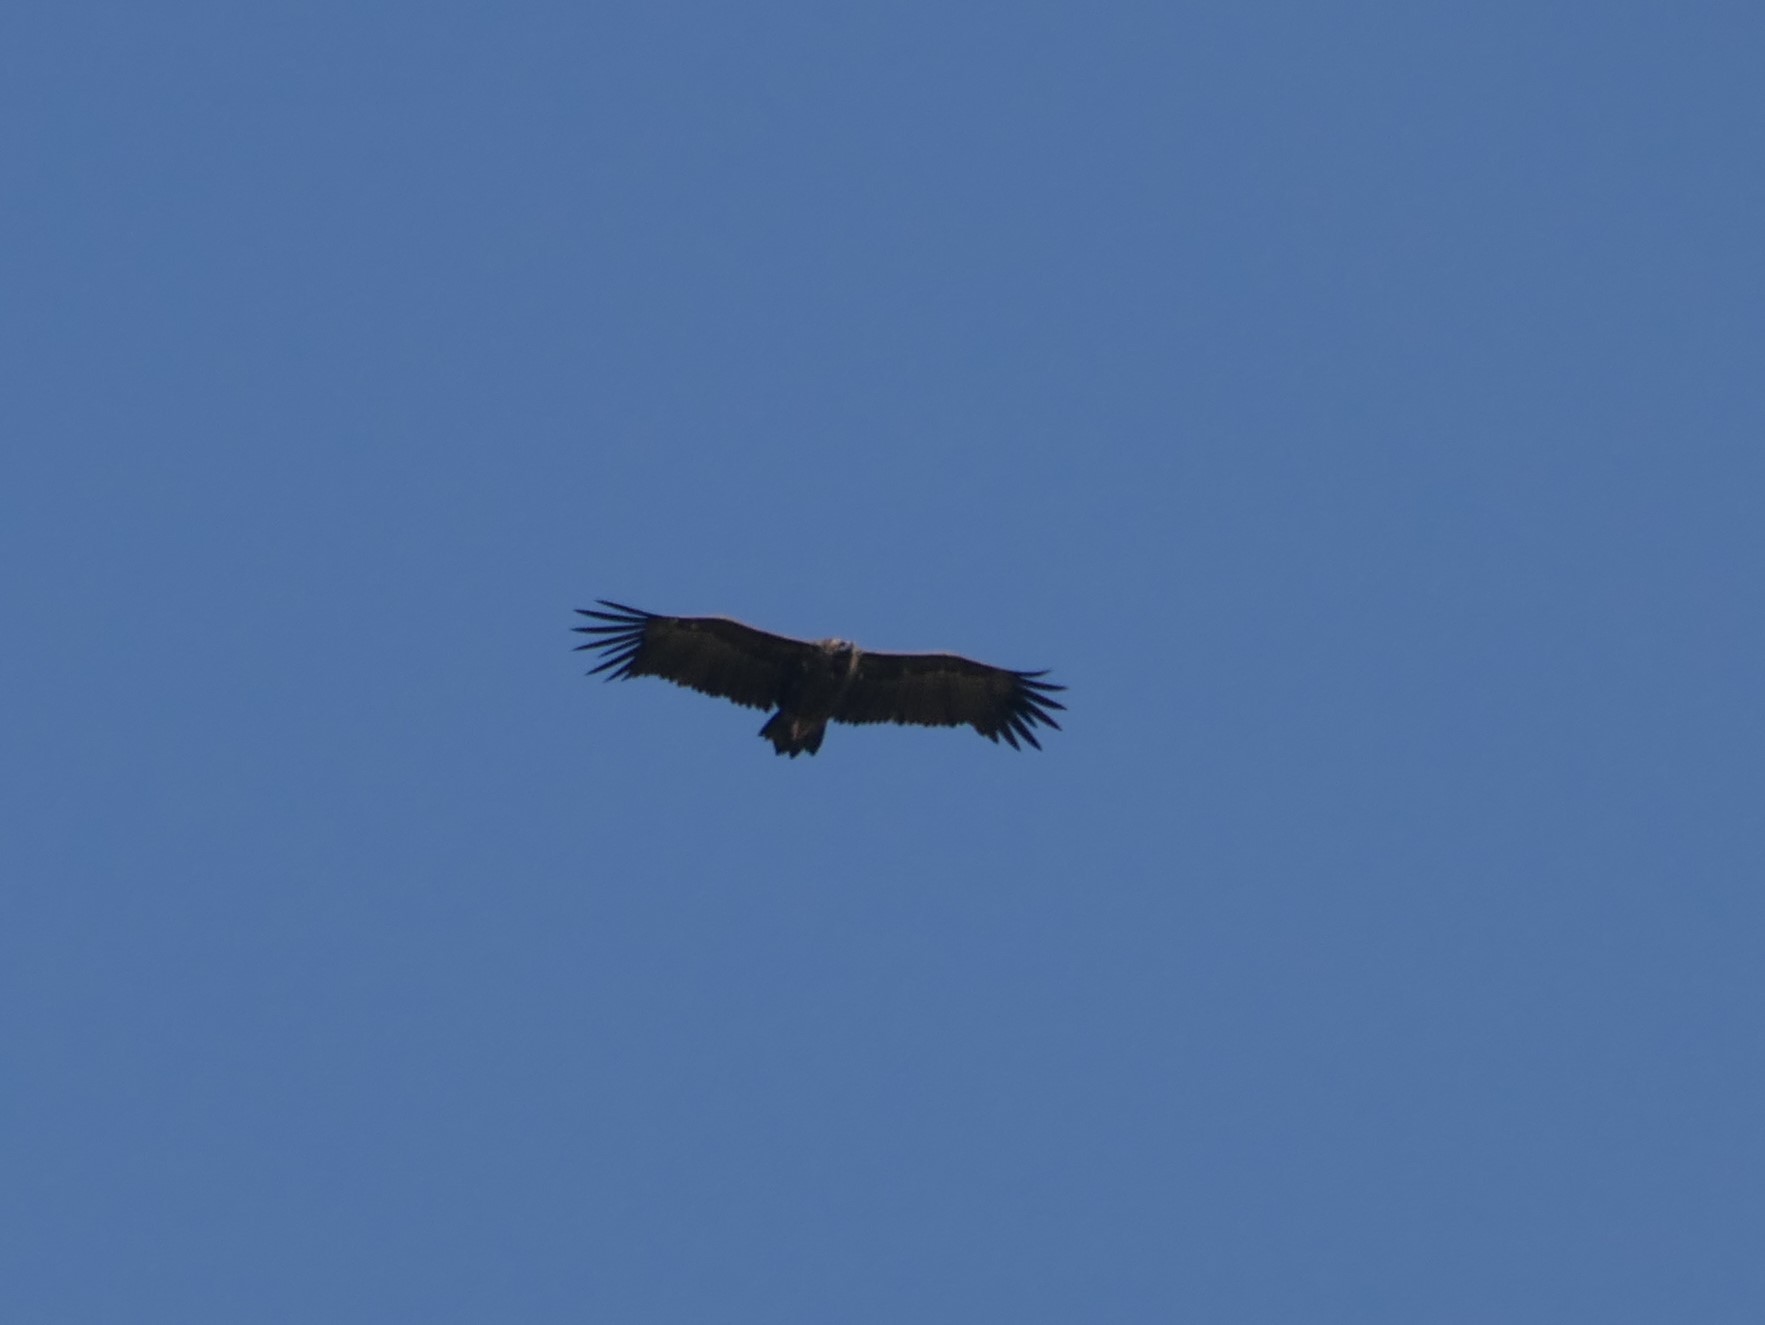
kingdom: Animalia
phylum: Chordata
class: Aves
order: Accipitriformes
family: Accipitridae
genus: Aegypius
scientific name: Aegypius monachus
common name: Cinereous vulture
